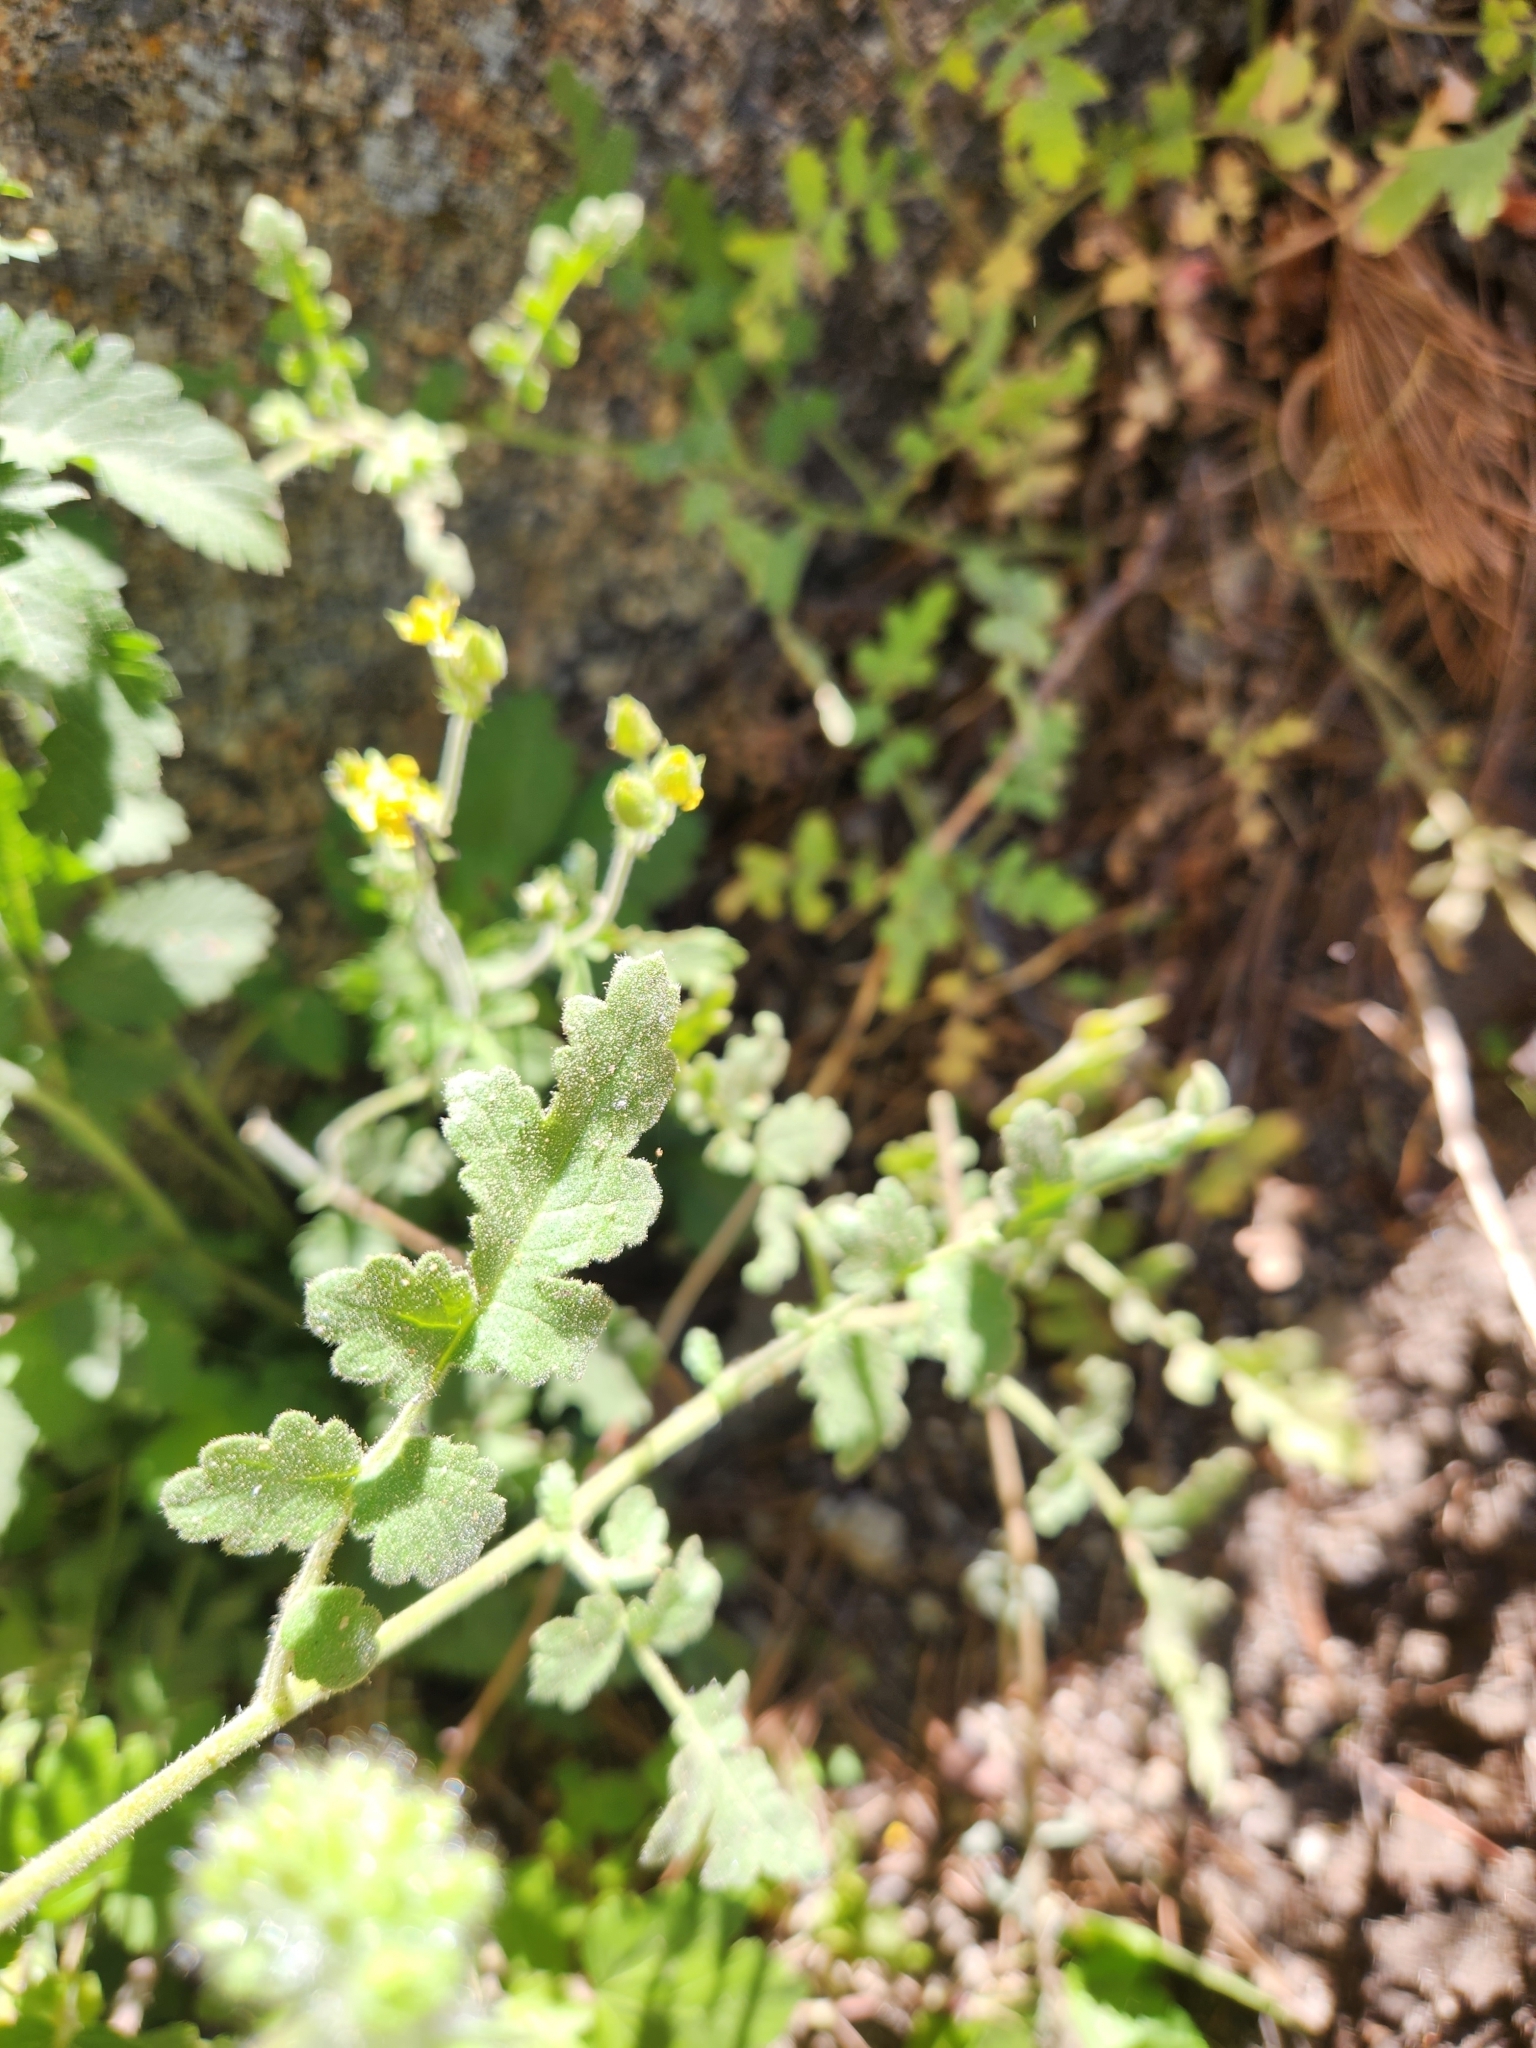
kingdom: Plantae
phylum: Tracheophyta
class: Magnoliopsida
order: Boraginales
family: Hydrophyllaceae
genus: Phacelia
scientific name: Phacelia ramosissima
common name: Branching phacelia
